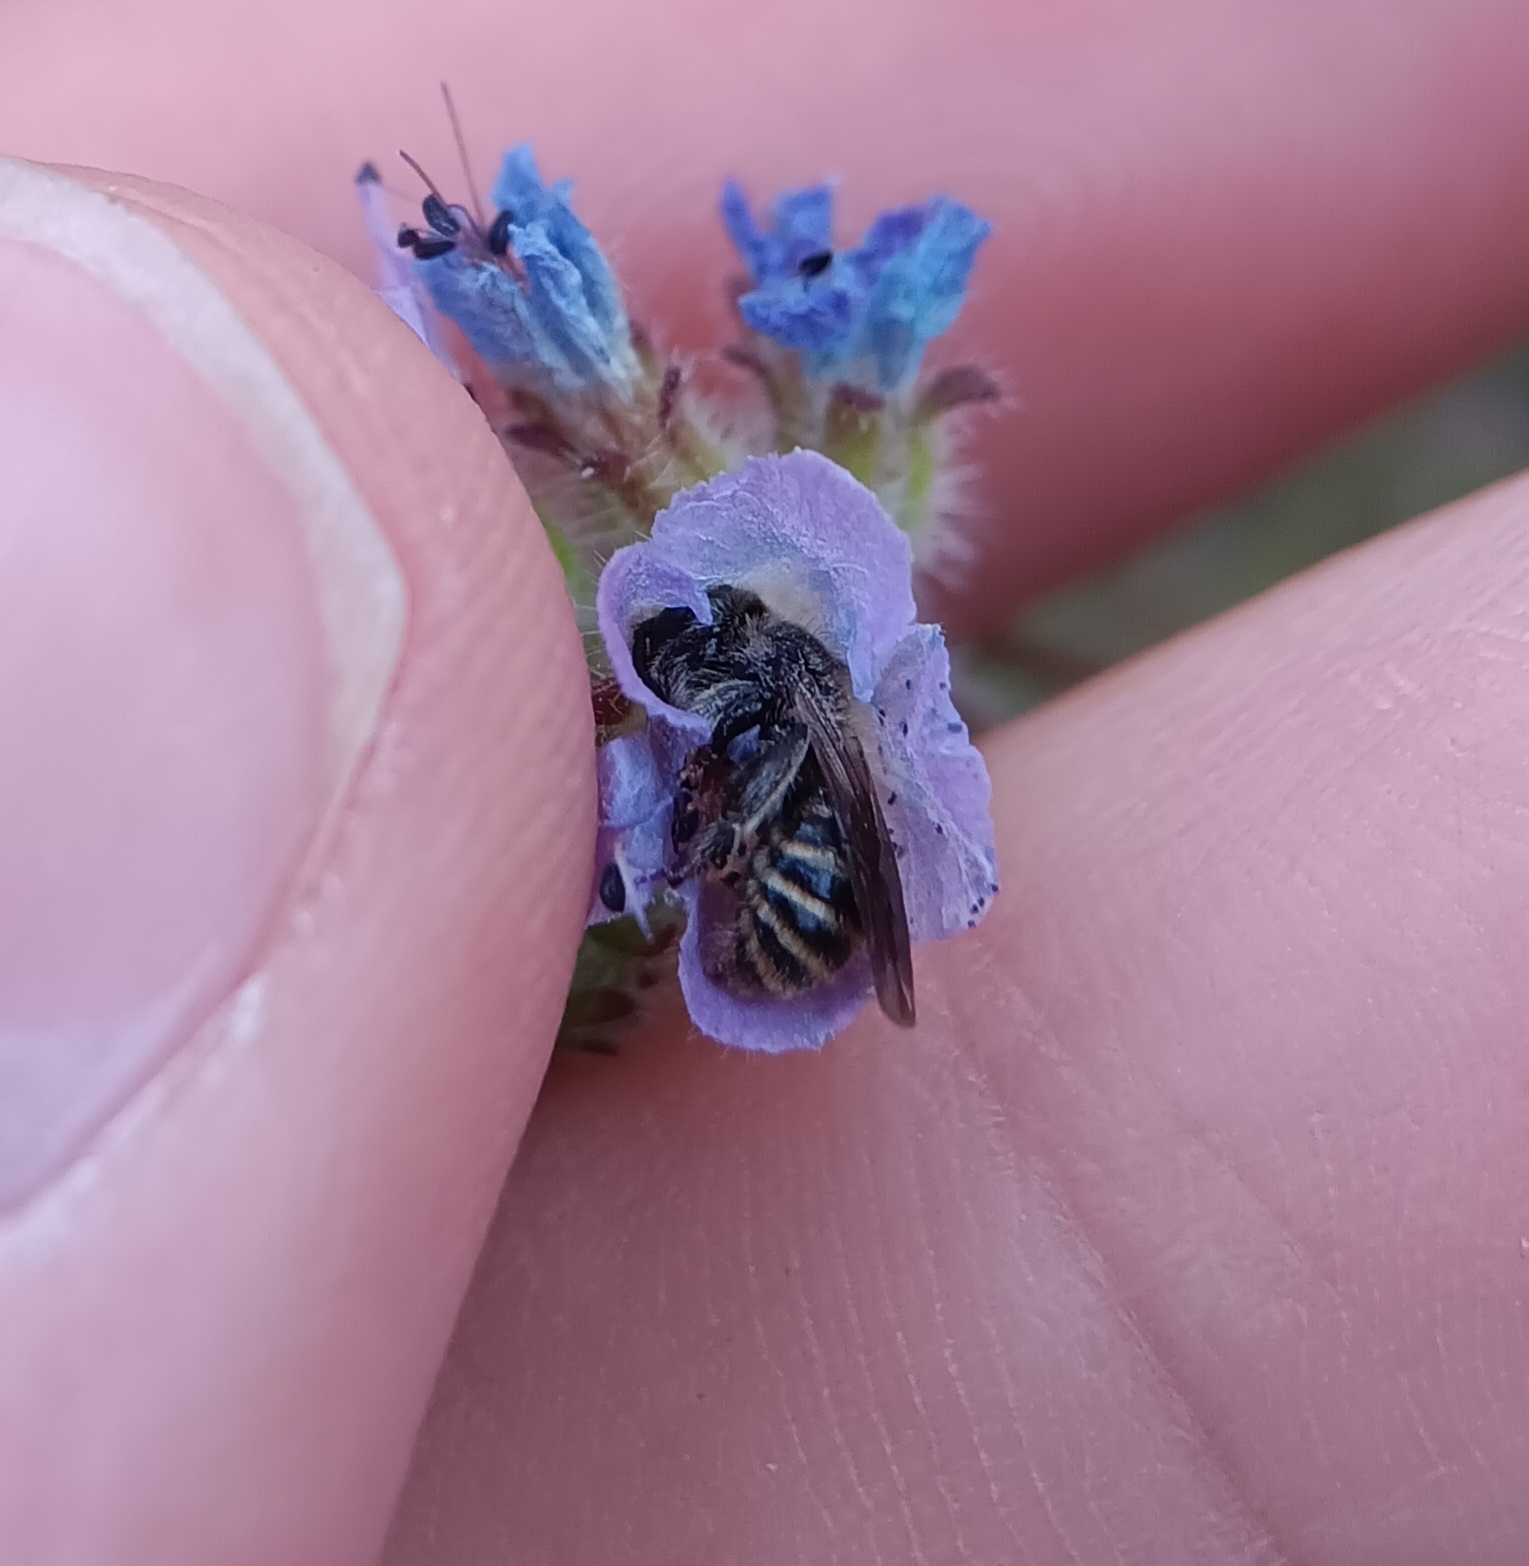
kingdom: Animalia
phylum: Arthropoda
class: Insecta
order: Hymenoptera
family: Halictidae
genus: Dufourea
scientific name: Dufourea mulleri
